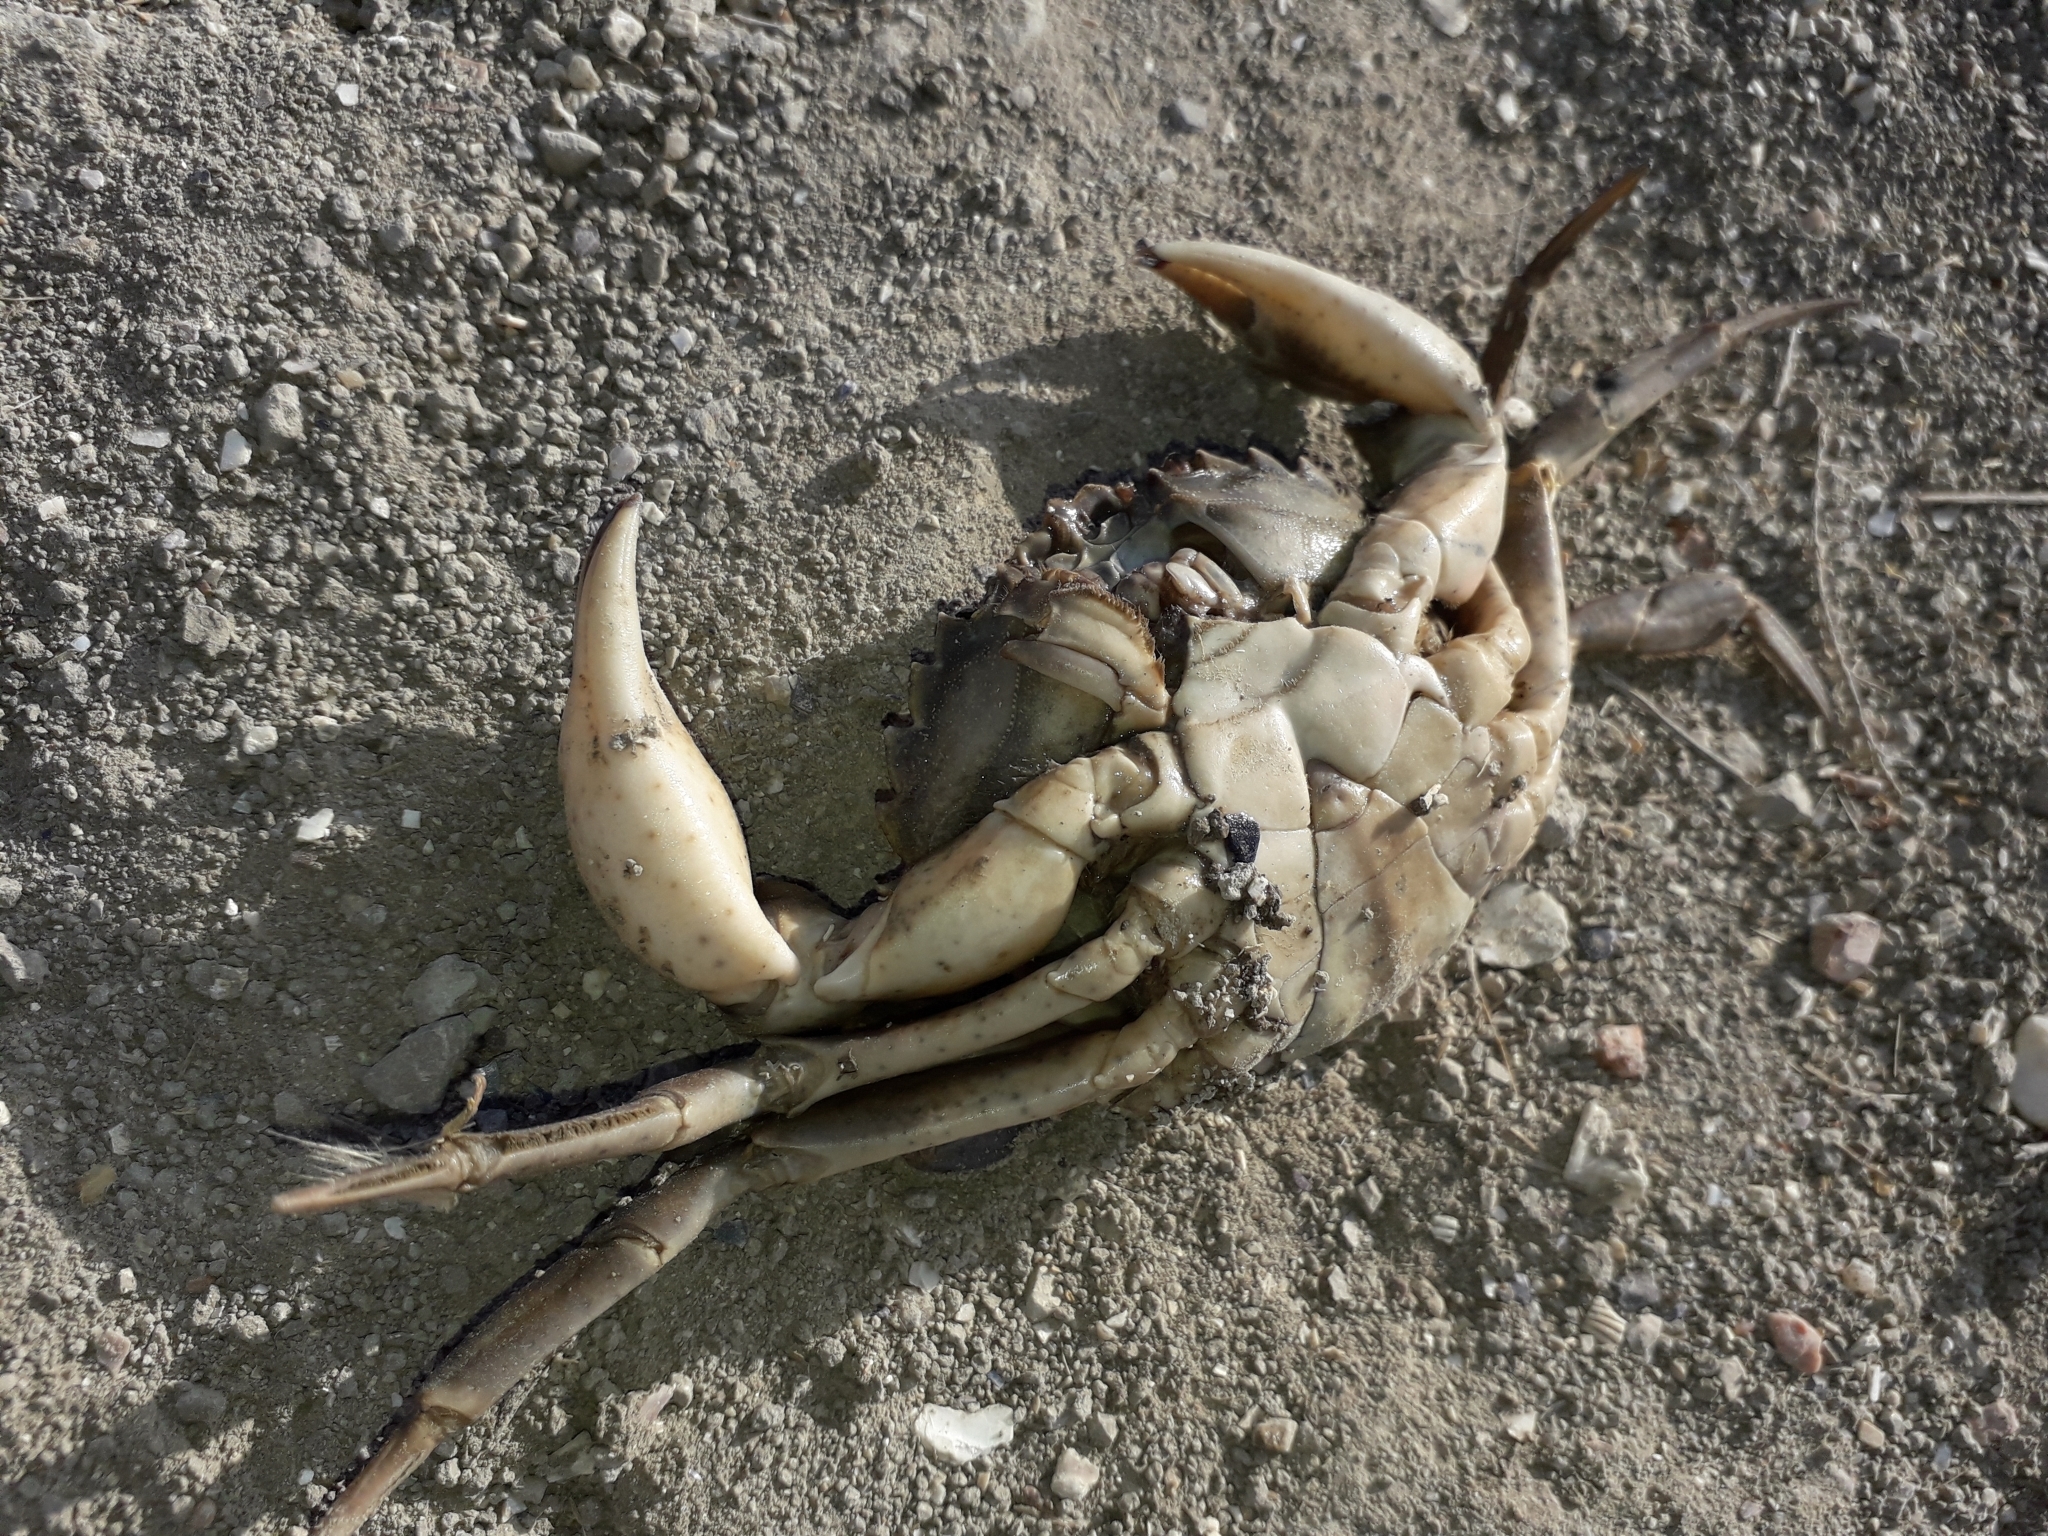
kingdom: Animalia
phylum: Arthropoda
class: Malacostraca
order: Decapoda
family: Carcinidae
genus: Carcinus
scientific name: Carcinus aestuarii
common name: Mediterranean green crab
